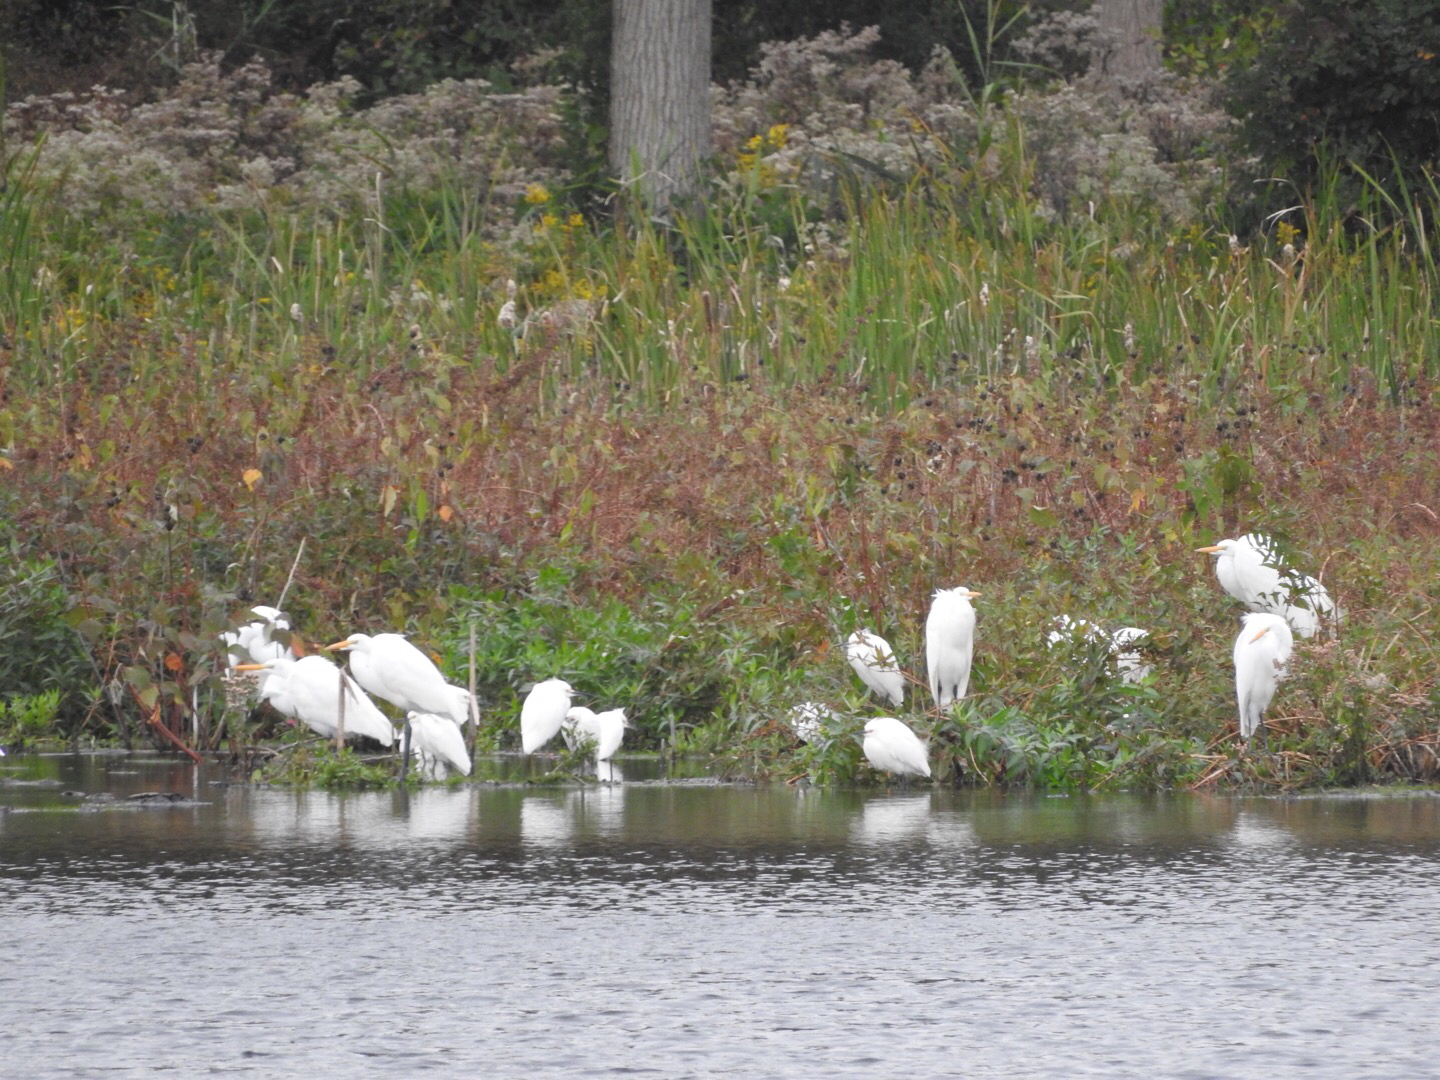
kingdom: Animalia
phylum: Chordata
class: Aves
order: Pelecaniformes
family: Ardeidae
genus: Ardea
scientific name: Ardea alba
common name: Great egret
